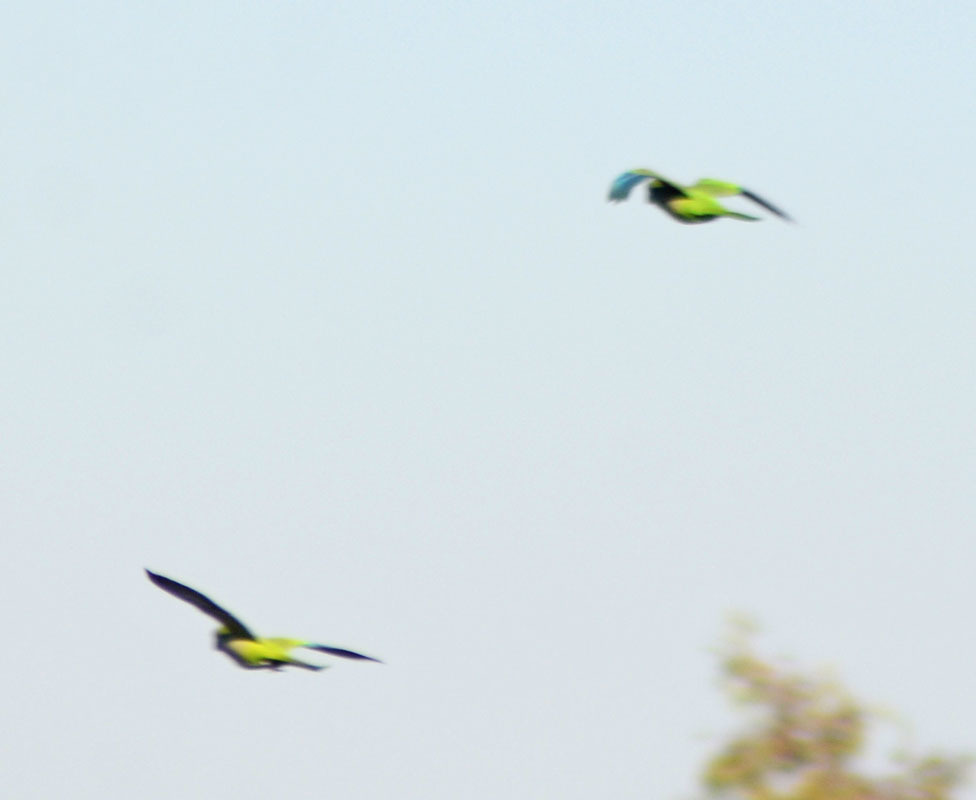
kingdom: Animalia
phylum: Chordata
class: Aves
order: Psittaciformes
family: Psittacidae
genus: Myiopsitta
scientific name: Myiopsitta monachus
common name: Monk parakeet
